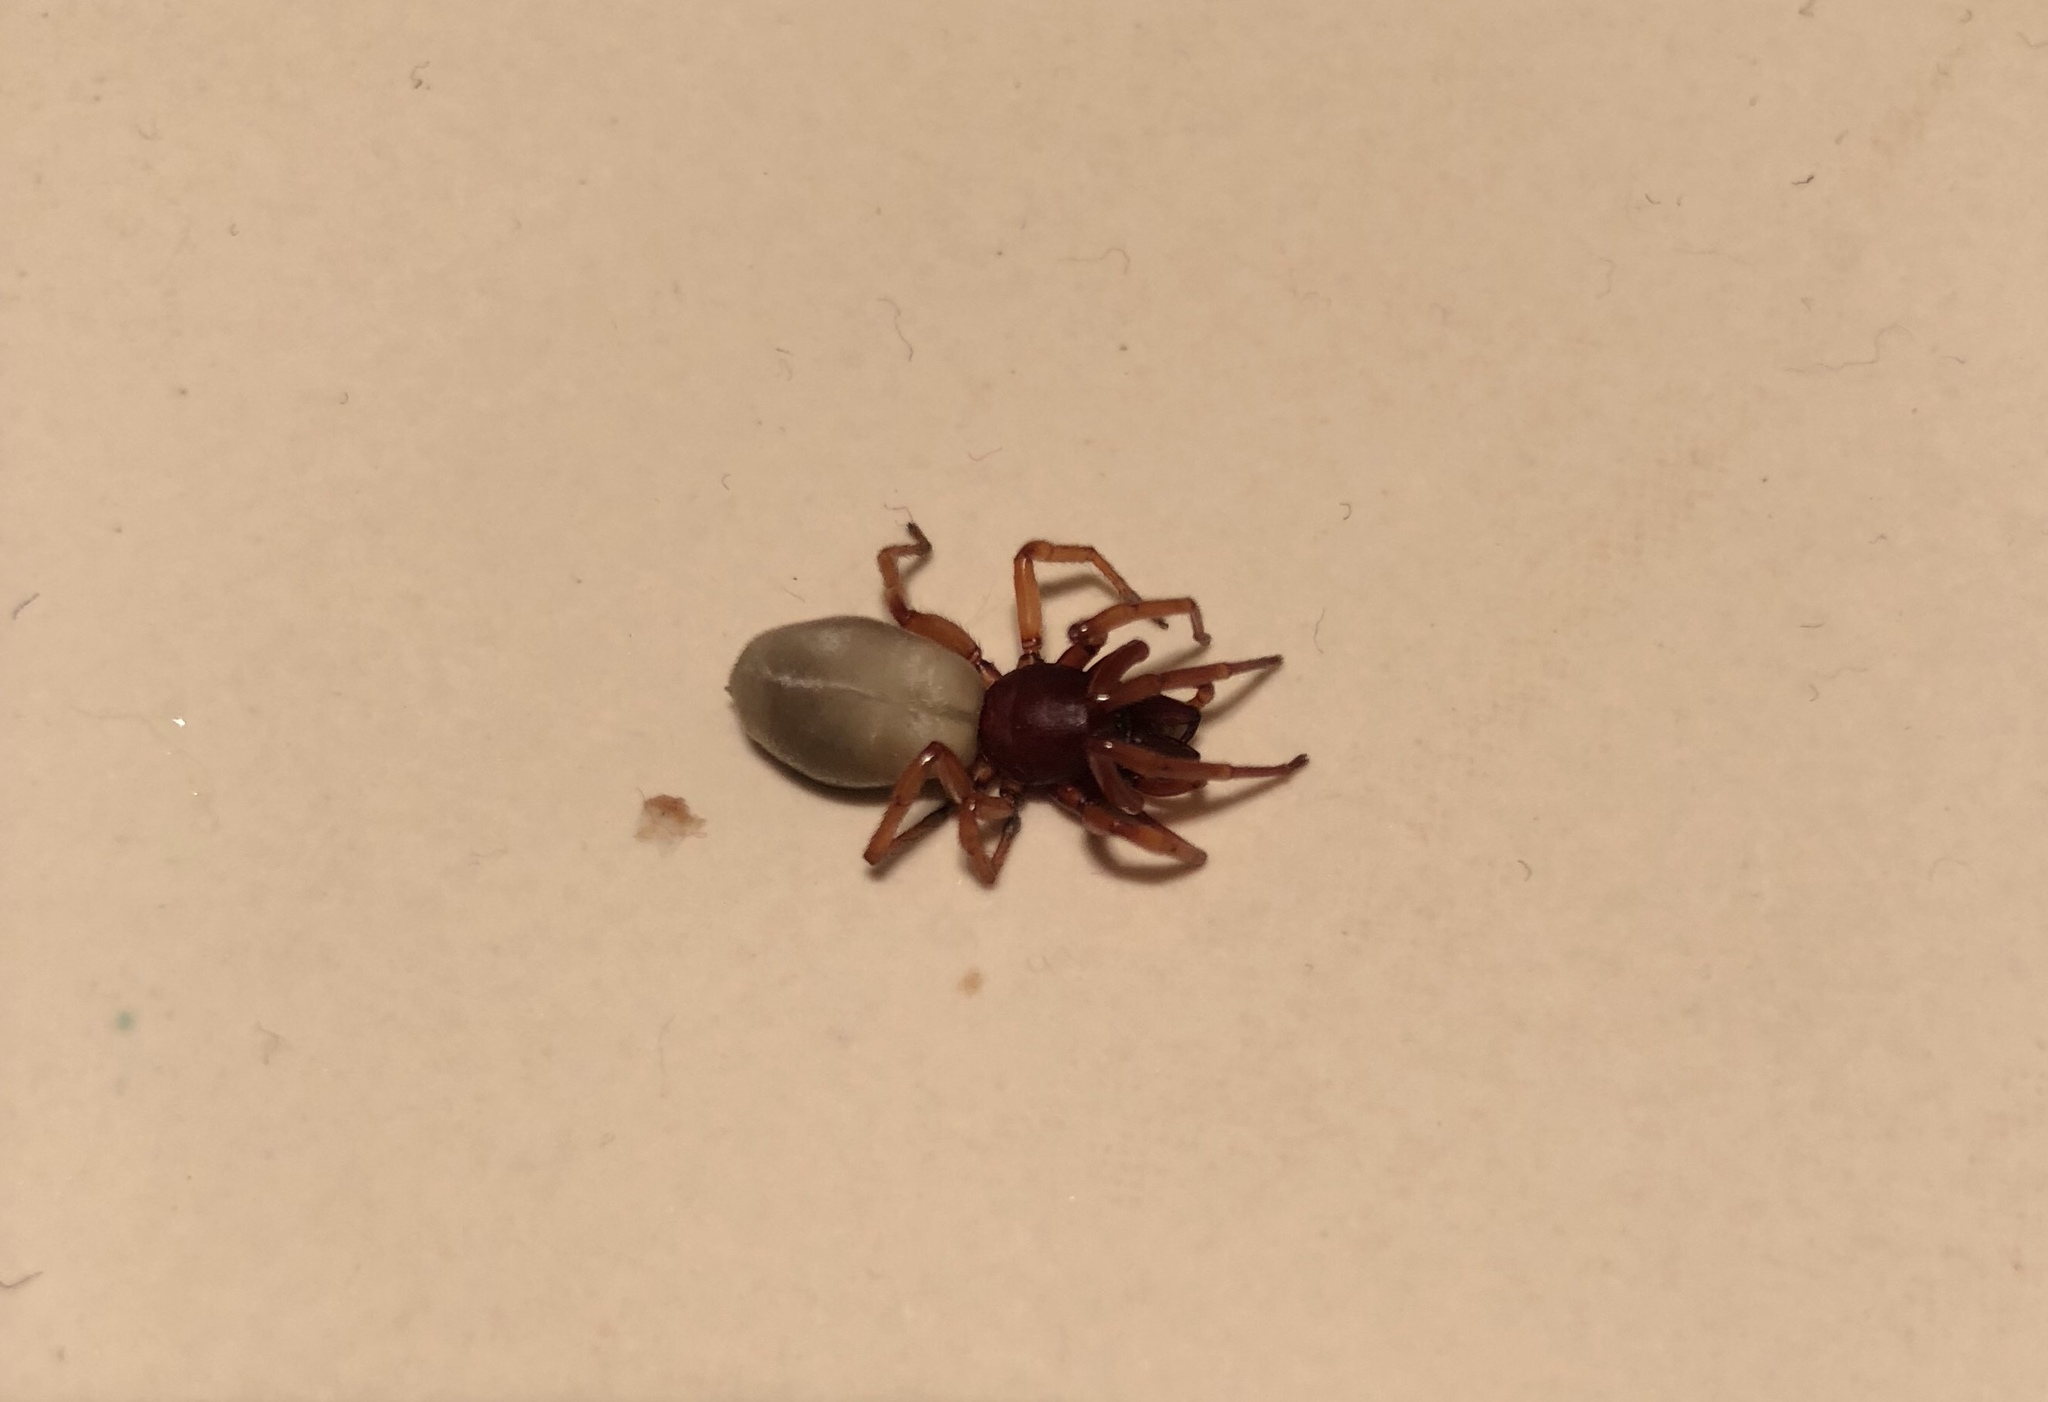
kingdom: Animalia
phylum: Arthropoda
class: Arachnida
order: Araneae
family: Dysderidae
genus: Dysdera
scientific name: Dysdera crocata
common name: Woodlouse spider
